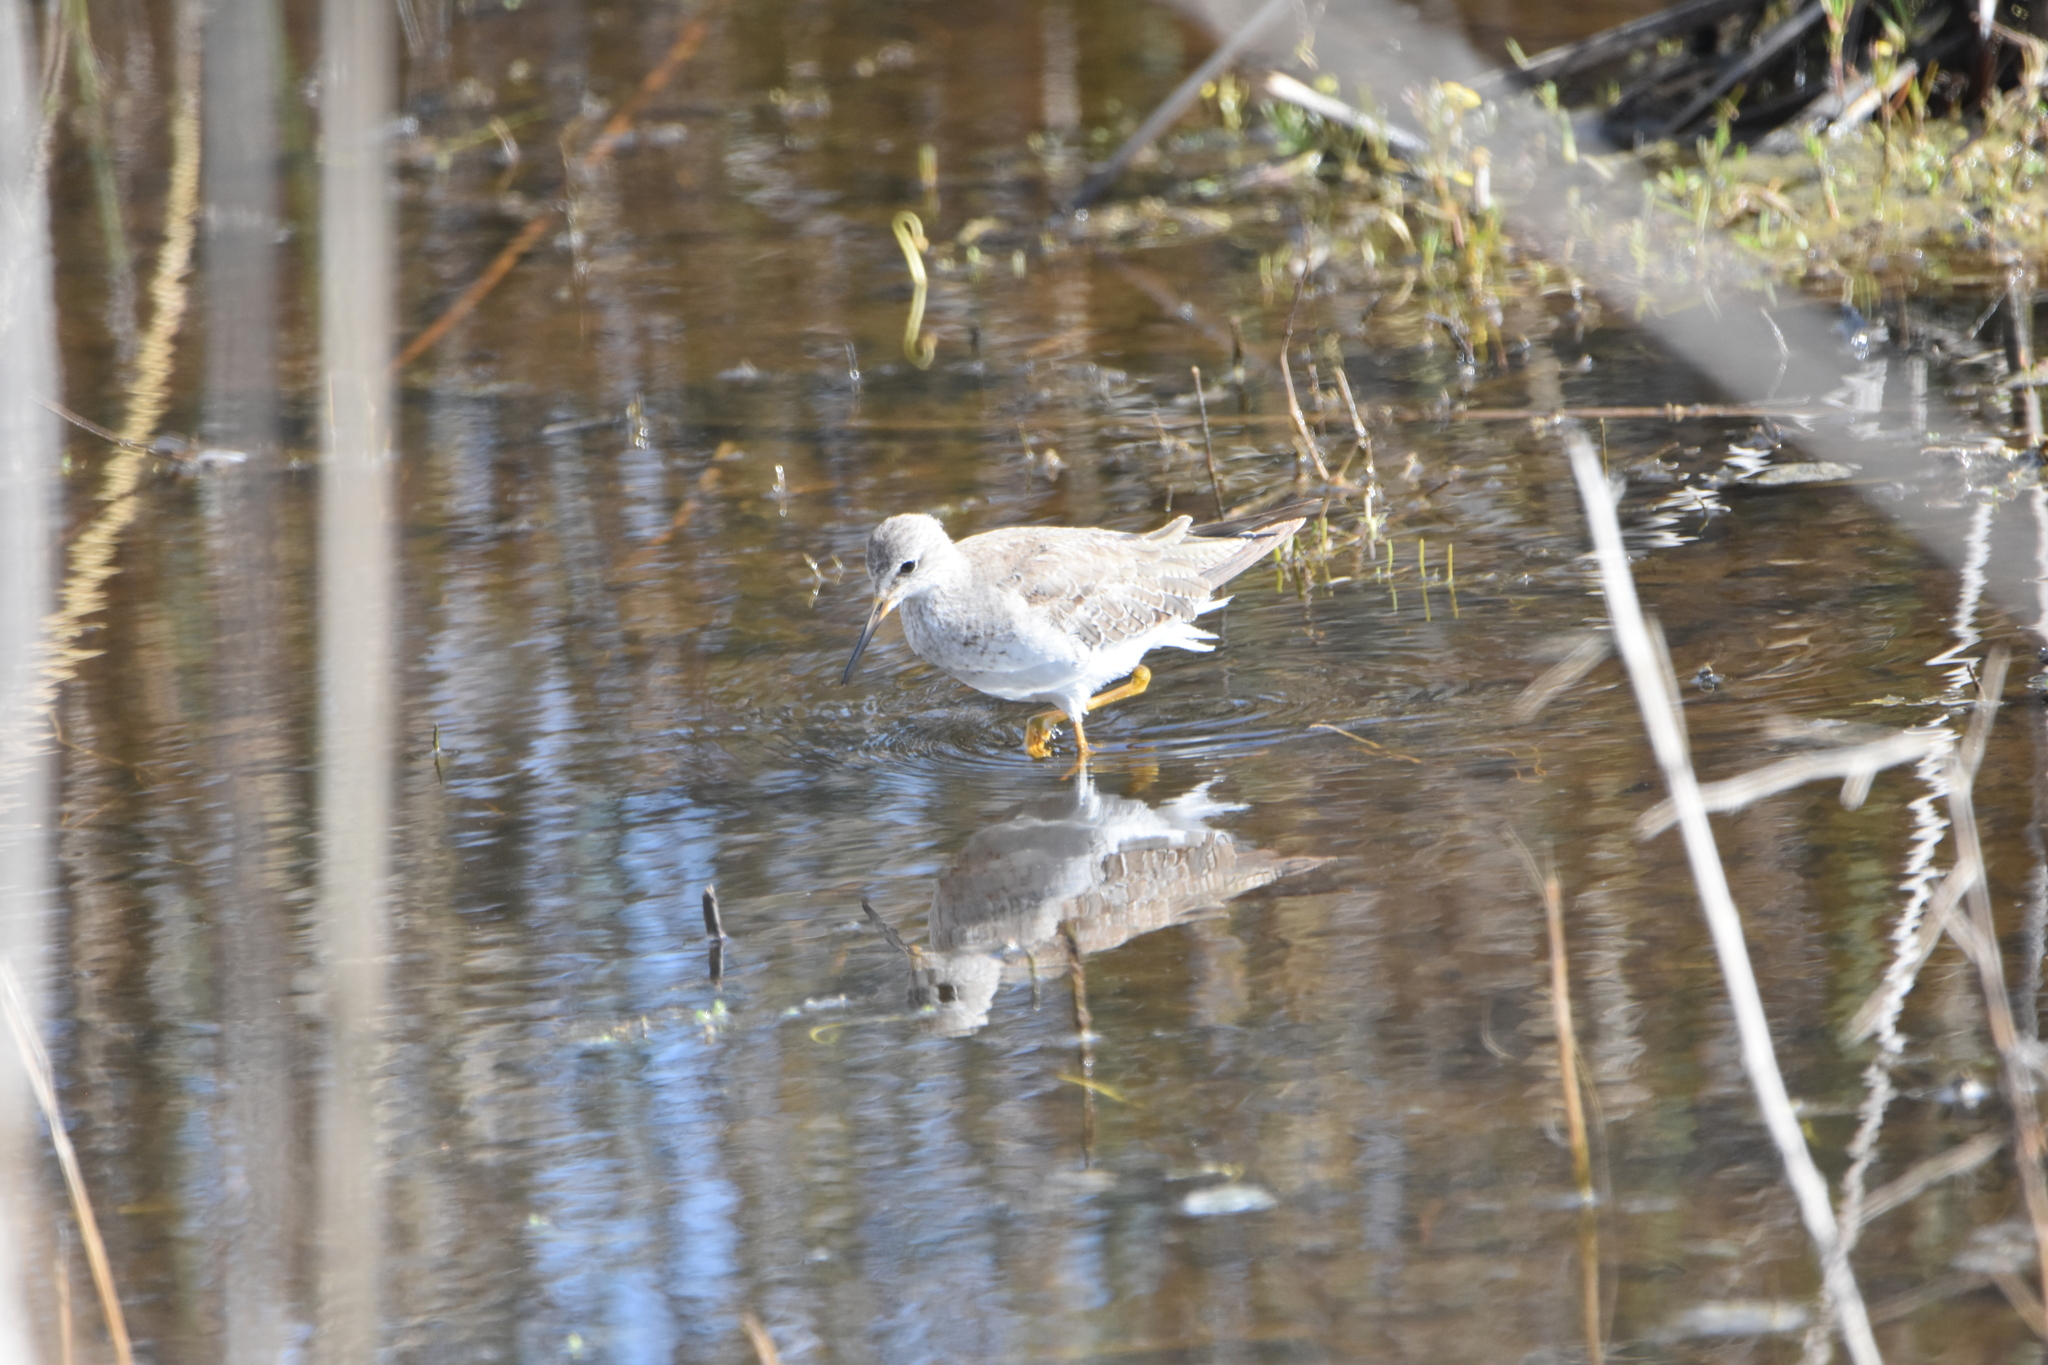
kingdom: Animalia
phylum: Chordata
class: Aves
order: Charadriiformes
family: Scolopacidae
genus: Tringa
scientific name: Tringa flavipes
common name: Lesser yellowlegs
